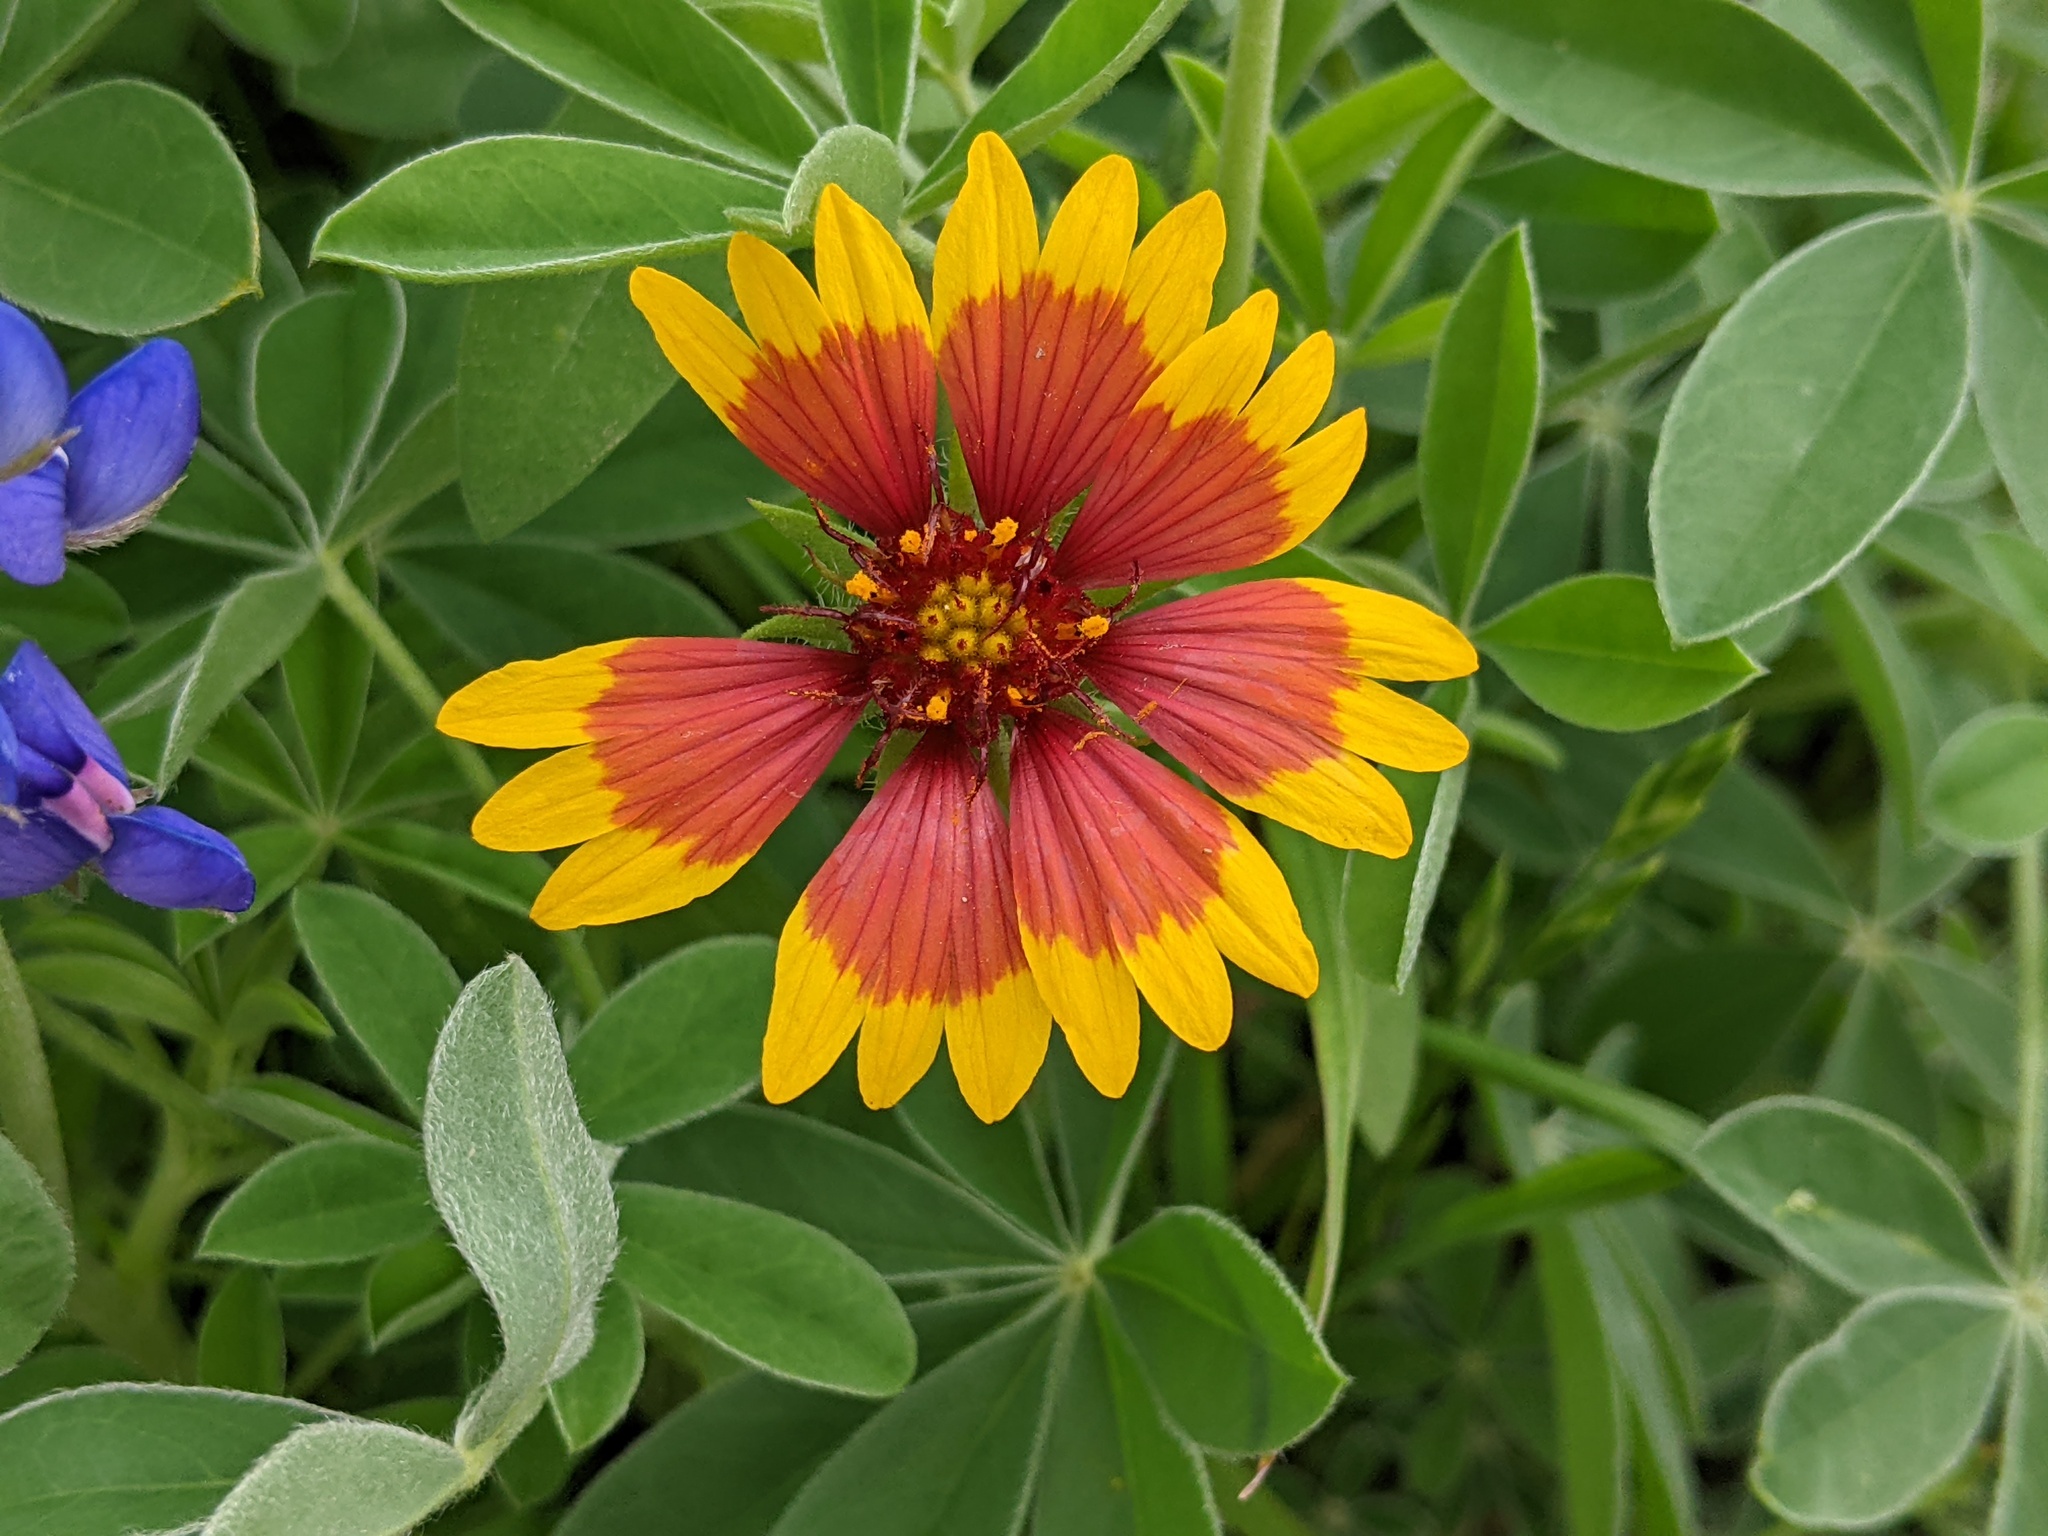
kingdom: Plantae
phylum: Tracheophyta
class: Magnoliopsida
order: Asterales
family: Asteraceae
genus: Gaillardia
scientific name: Gaillardia pulchella
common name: Firewheel
